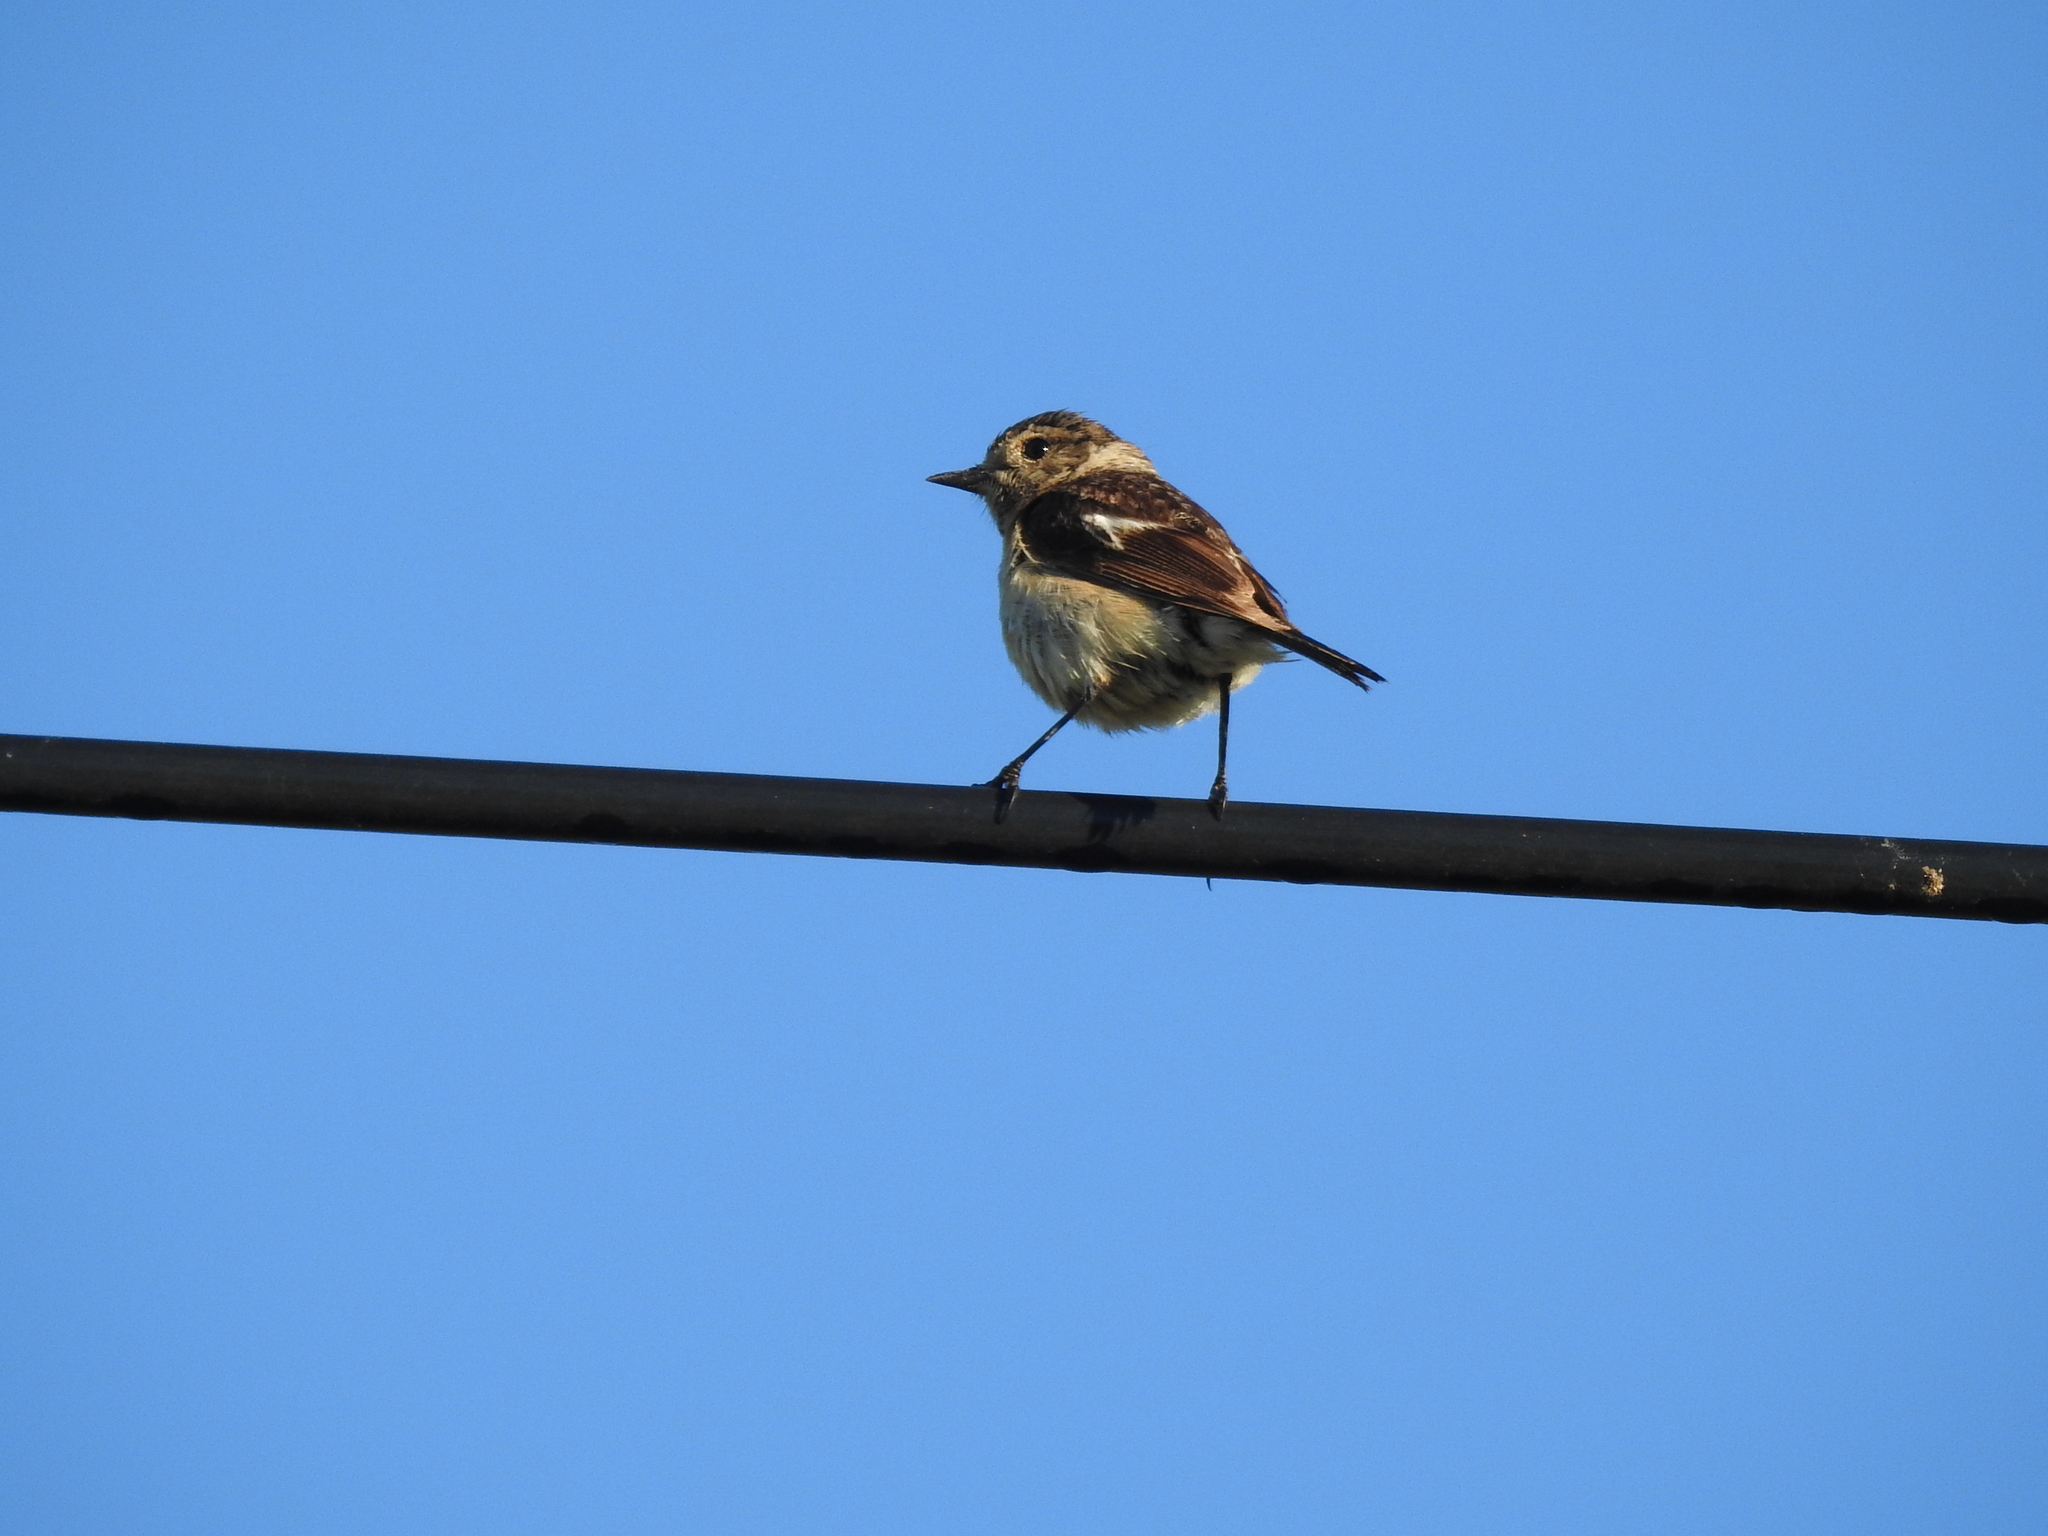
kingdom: Animalia
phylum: Chordata
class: Aves
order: Passeriformes
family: Muscicapidae
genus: Saxicola
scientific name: Saxicola maurus
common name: Siberian stonechat
